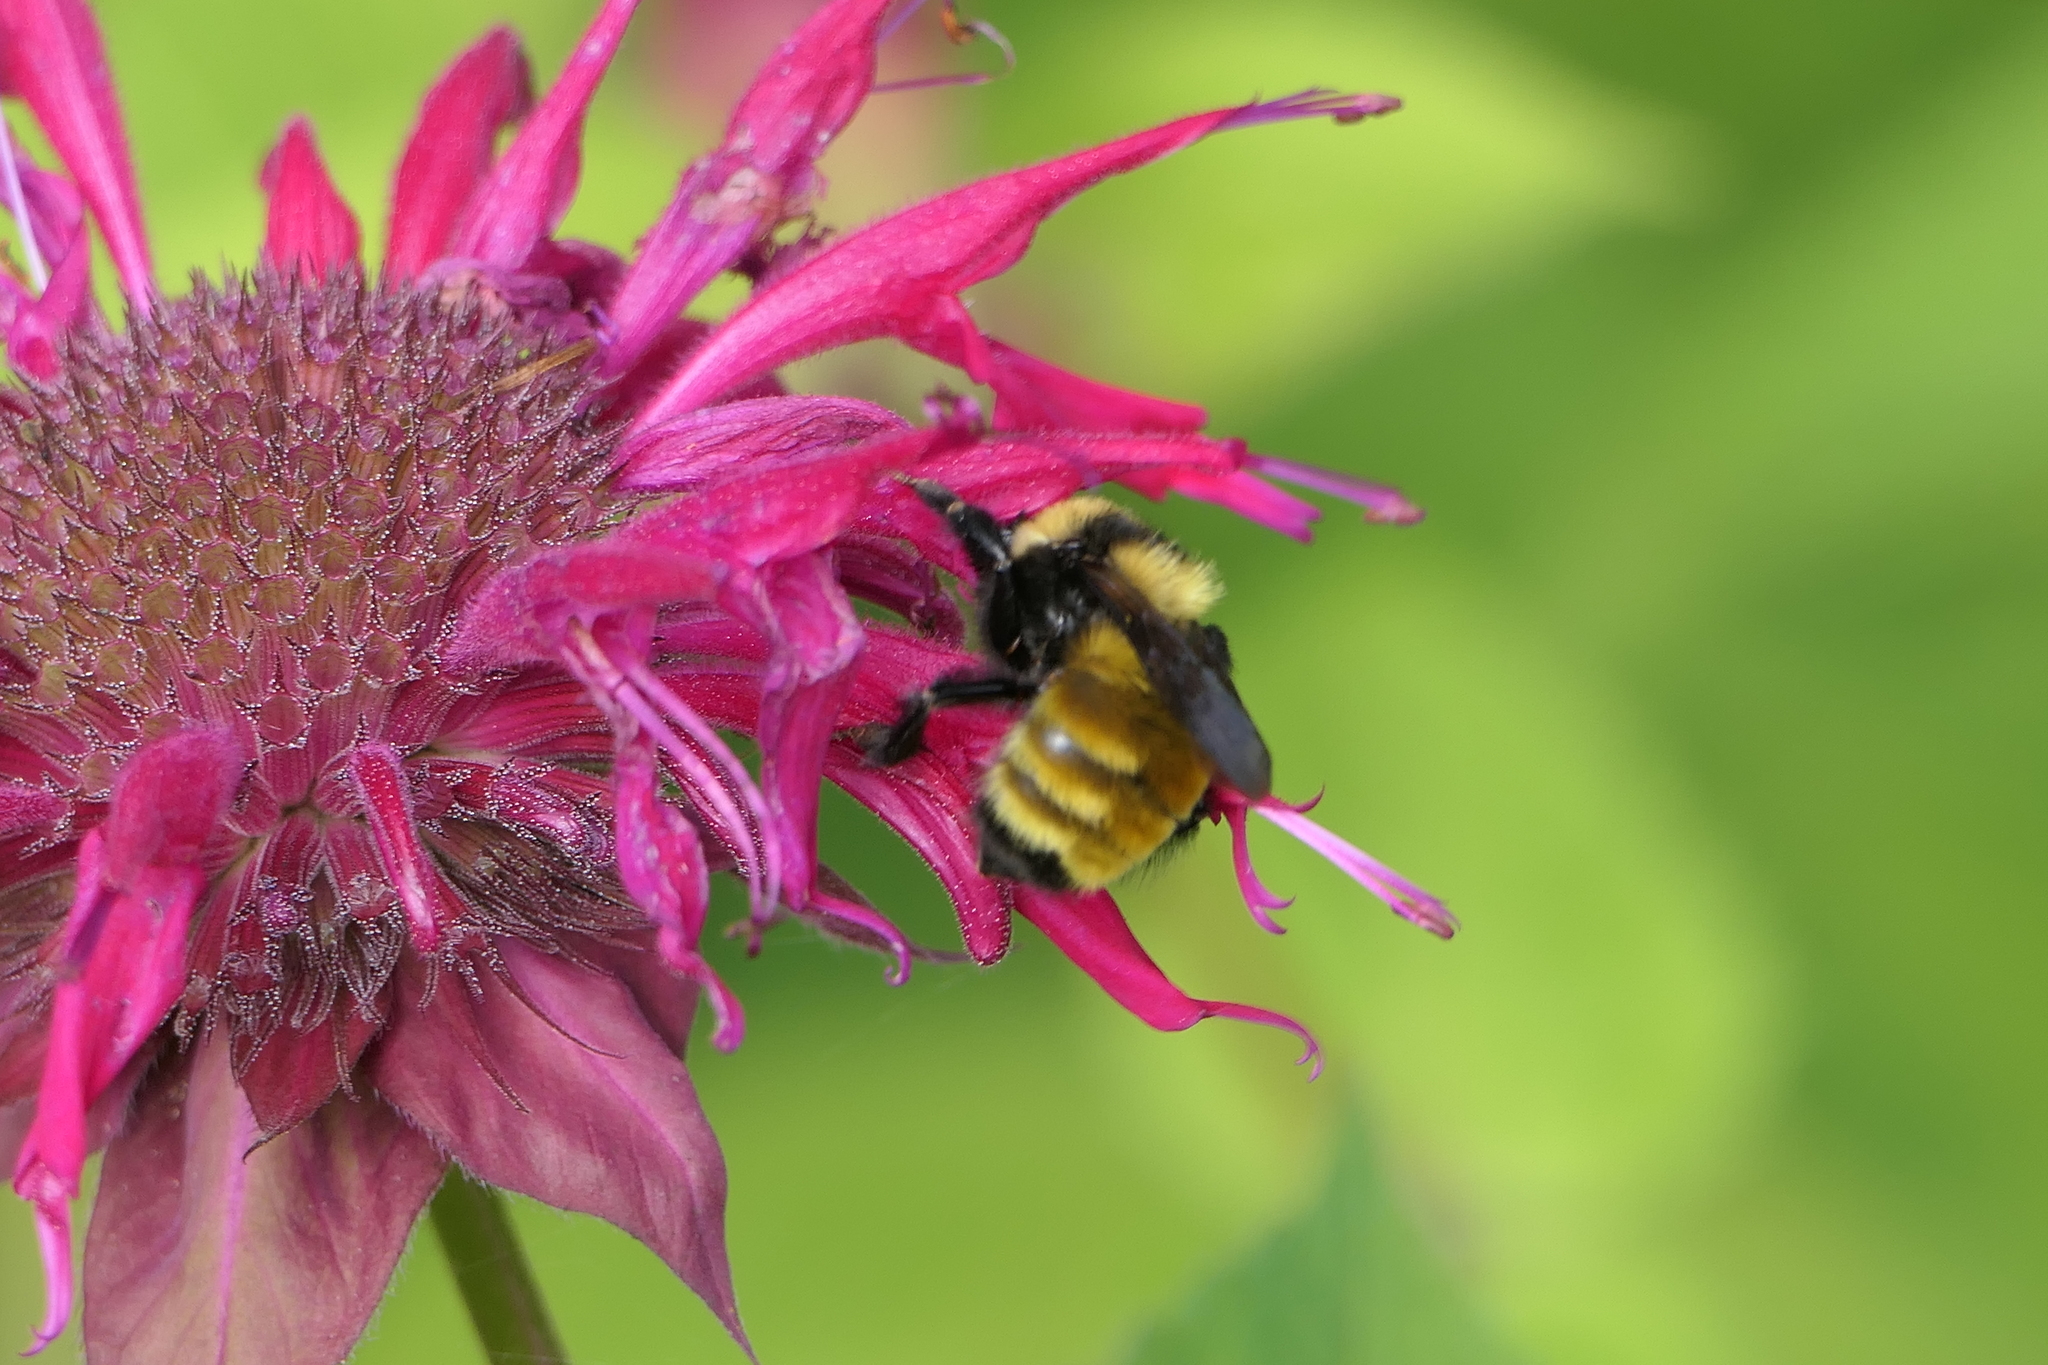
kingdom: Animalia
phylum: Arthropoda
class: Insecta
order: Hymenoptera
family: Apidae
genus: Bombus
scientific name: Bombus borealis
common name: Northern amber bumble bee
